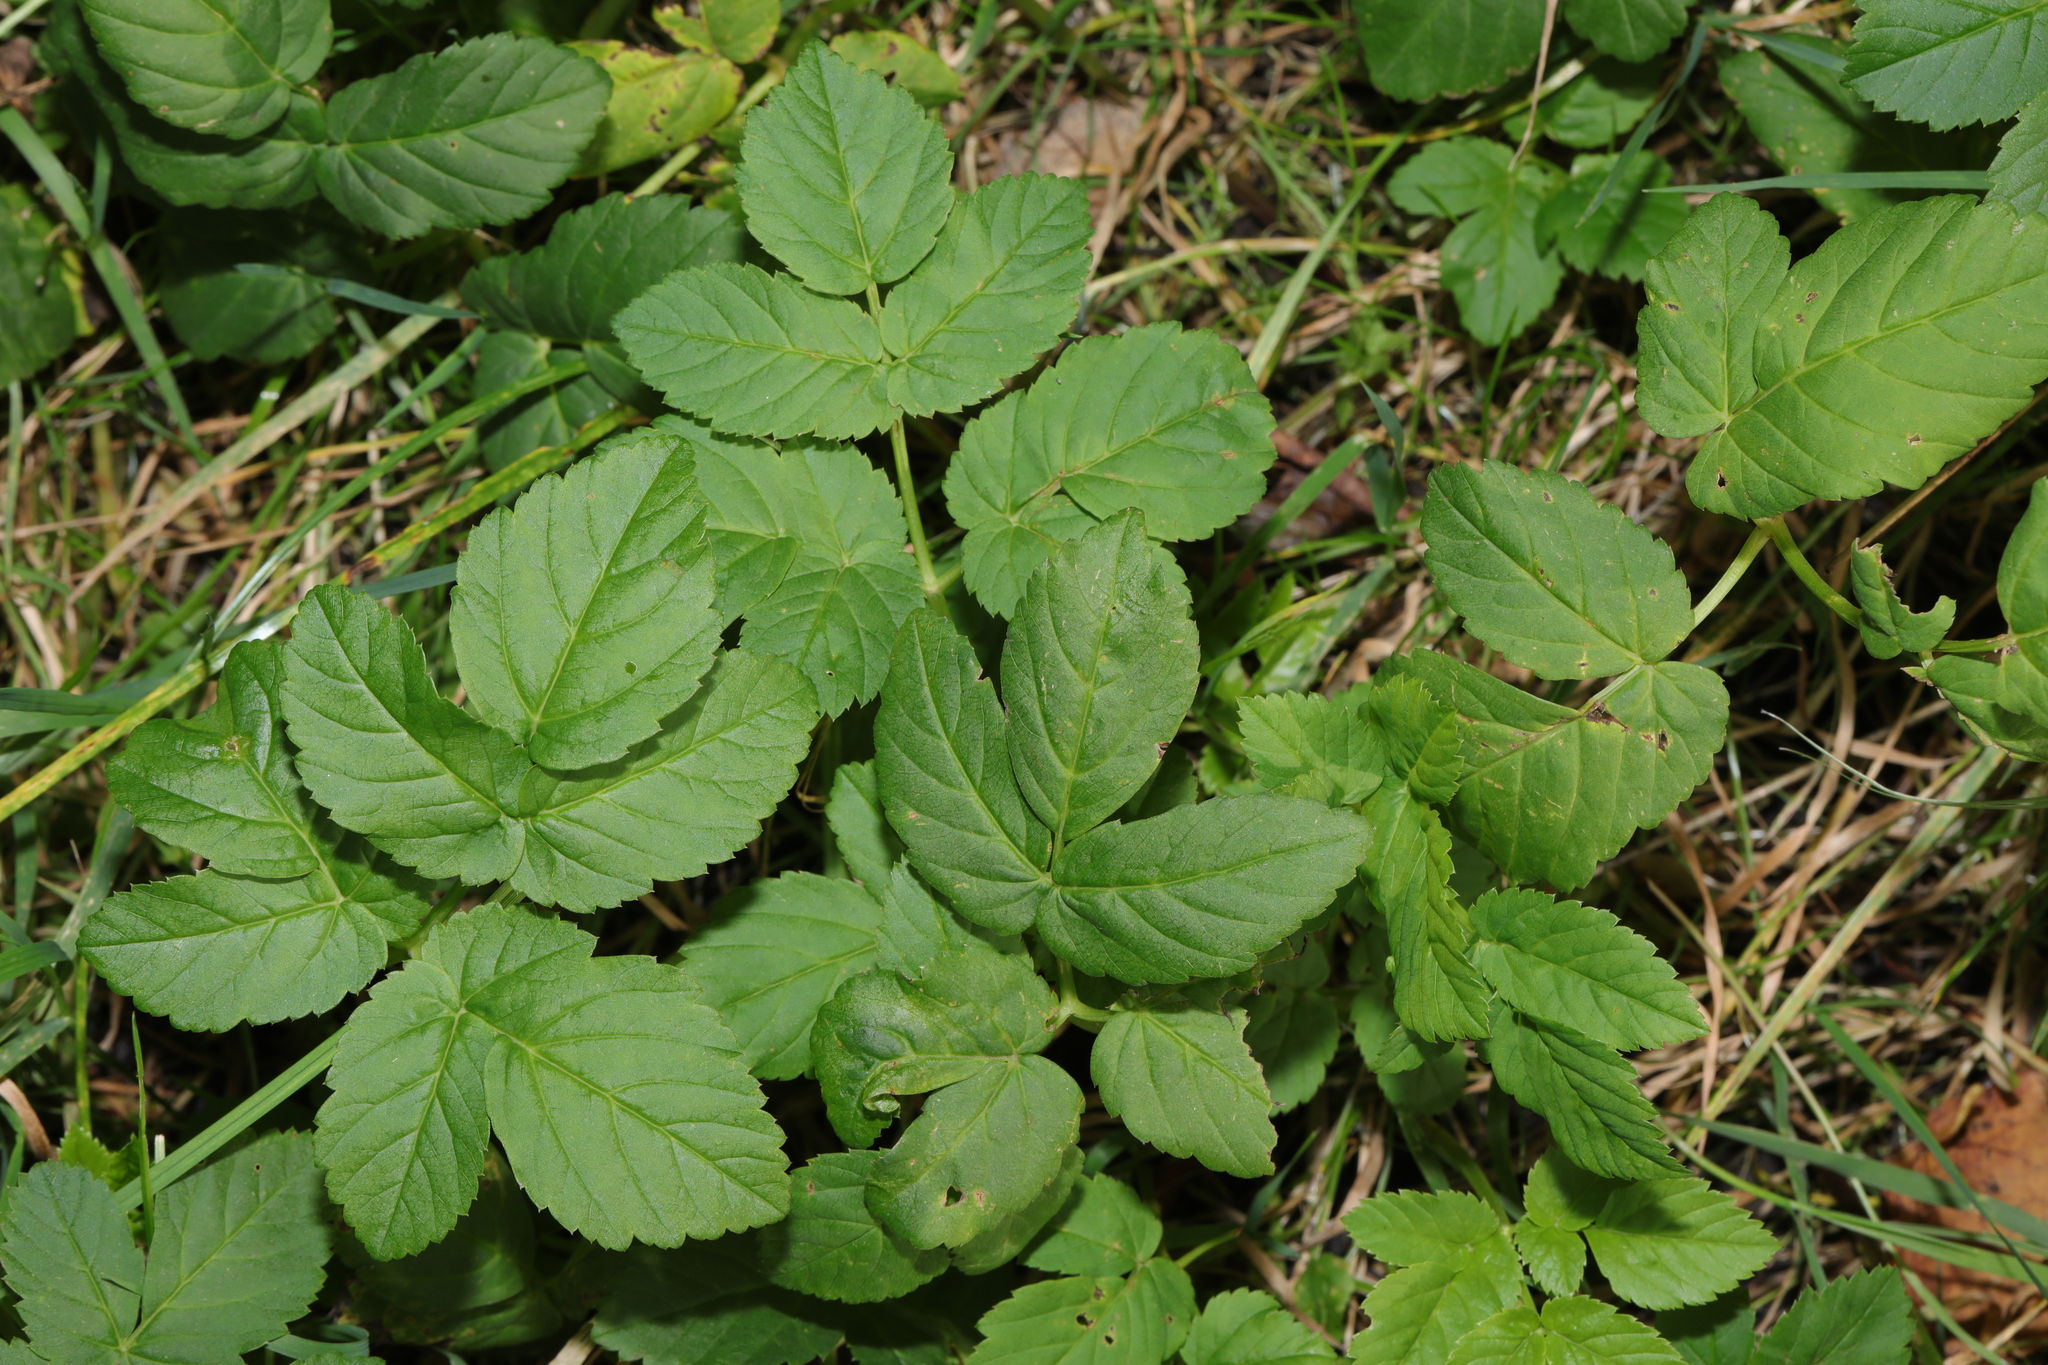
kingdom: Plantae
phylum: Tracheophyta
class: Magnoliopsida
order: Apiales
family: Apiaceae
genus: Aegopodium
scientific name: Aegopodium podagraria
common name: Ground-elder
